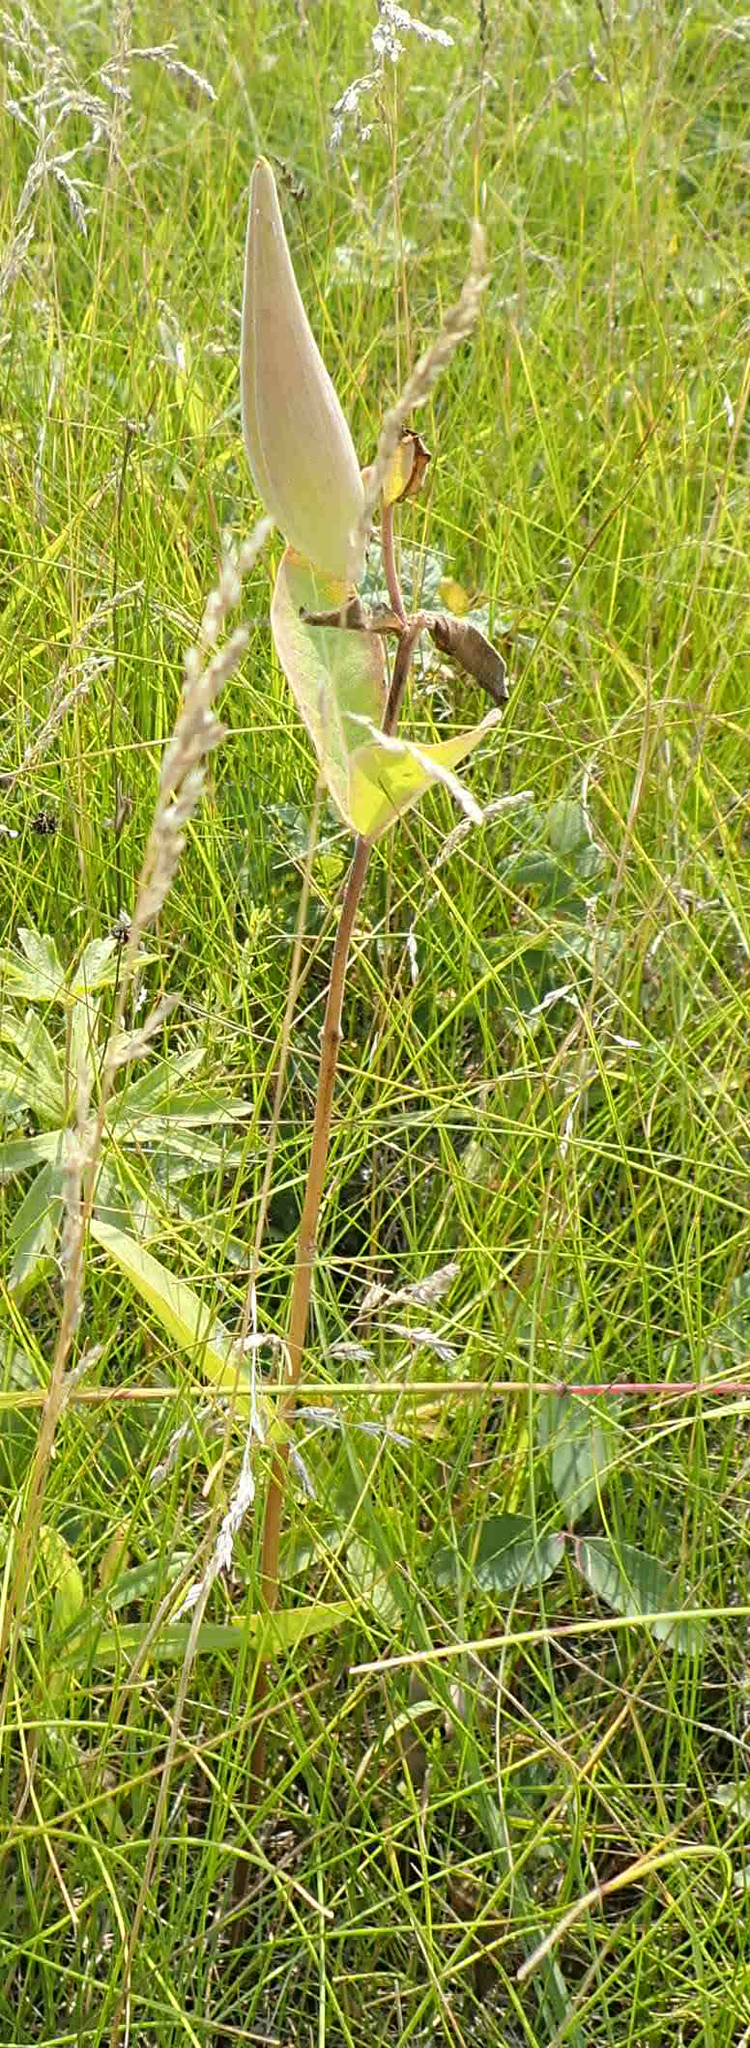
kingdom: Plantae
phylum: Tracheophyta
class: Magnoliopsida
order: Gentianales
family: Apocynaceae
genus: Asclepias
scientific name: Asclepias ovalifolia
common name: Dwarf milkweed
